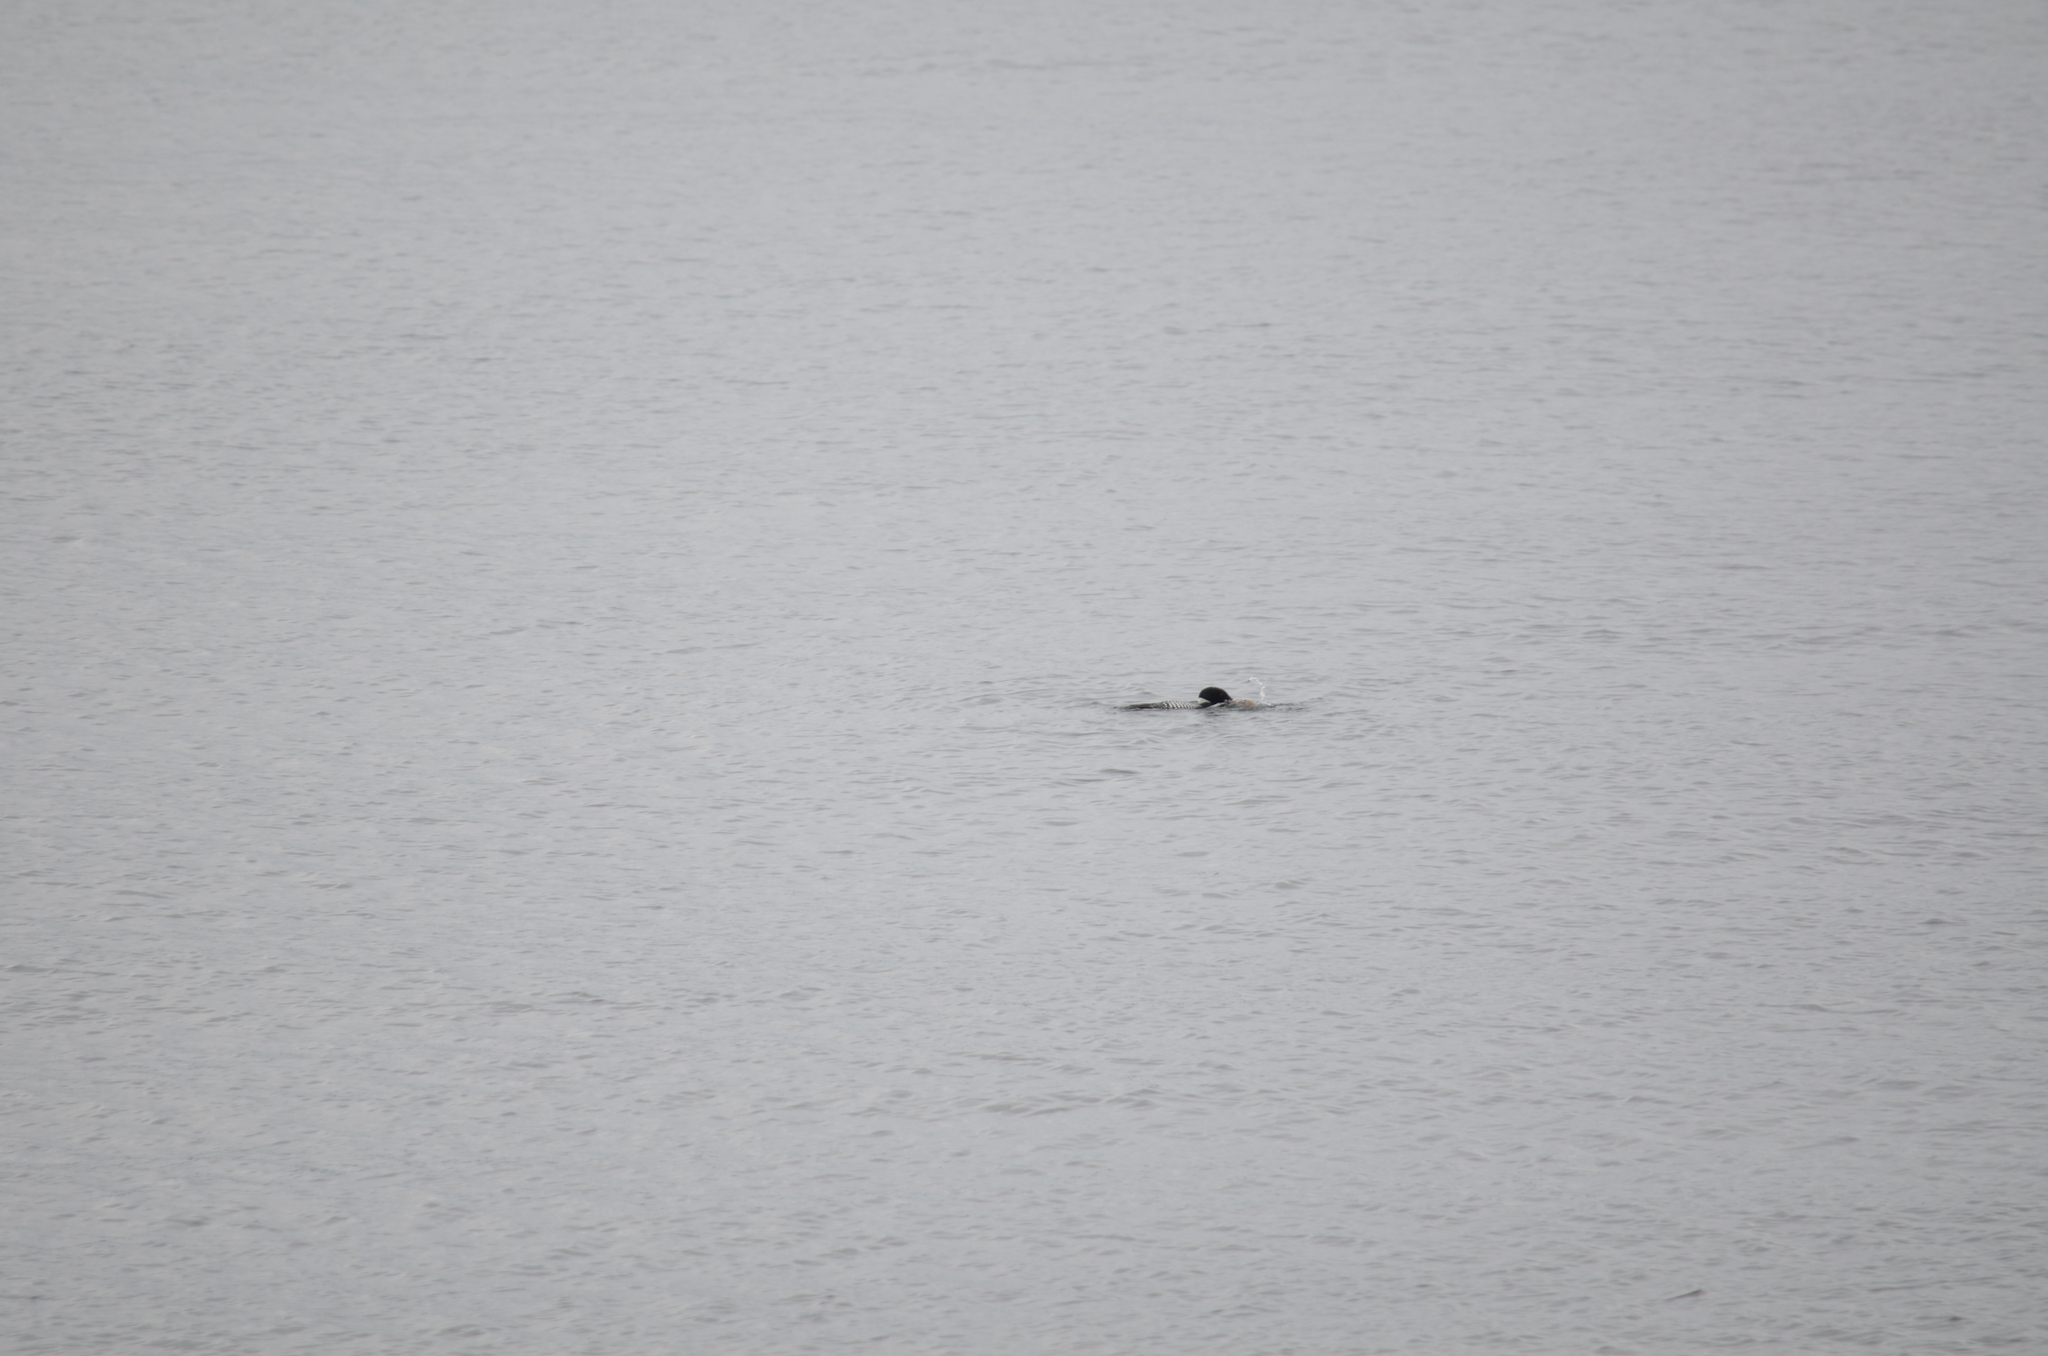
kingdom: Animalia
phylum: Chordata
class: Aves
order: Gaviiformes
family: Gaviidae
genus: Gavia
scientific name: Gavia immer
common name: Common loon
